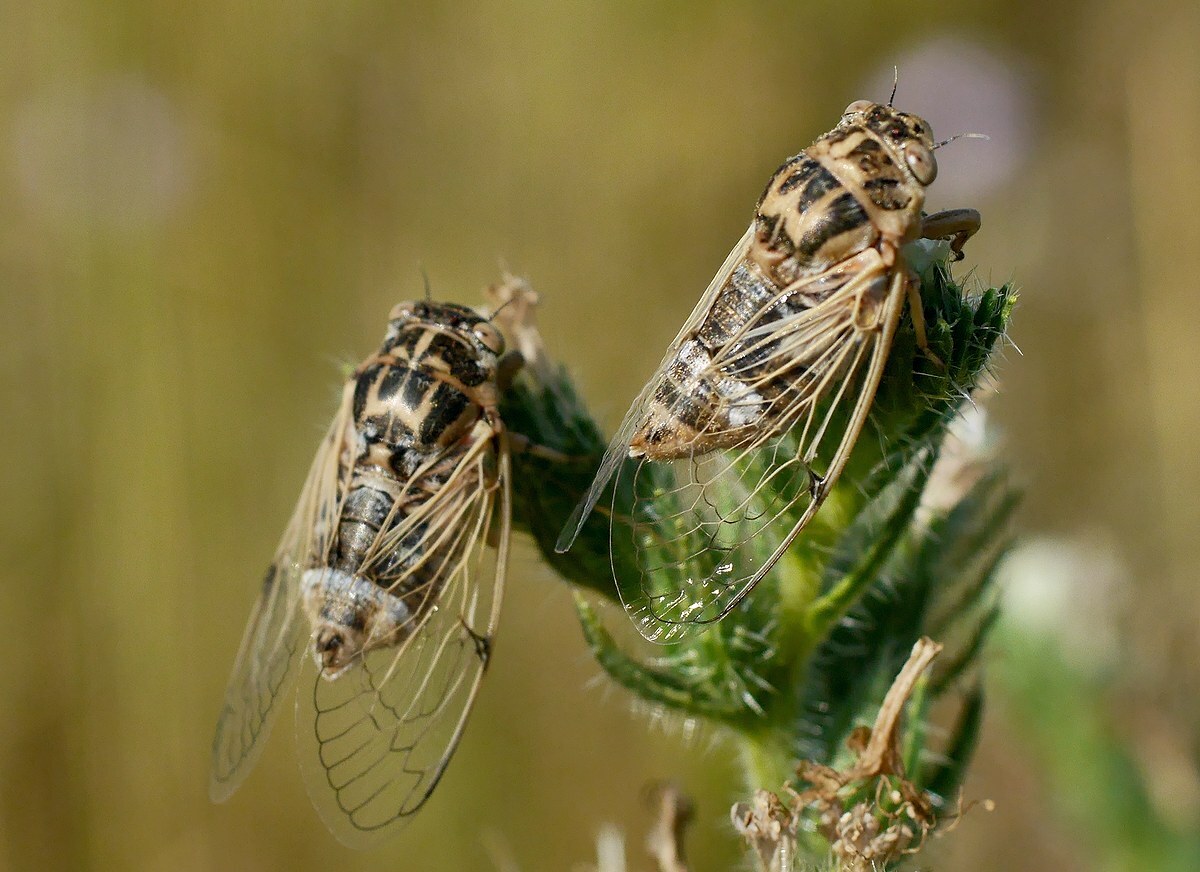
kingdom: Animalia
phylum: Arthropoda
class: Insecta
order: Hemiptera
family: Cicadidae
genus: Cicadatra
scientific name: Cicadatra platyptera
